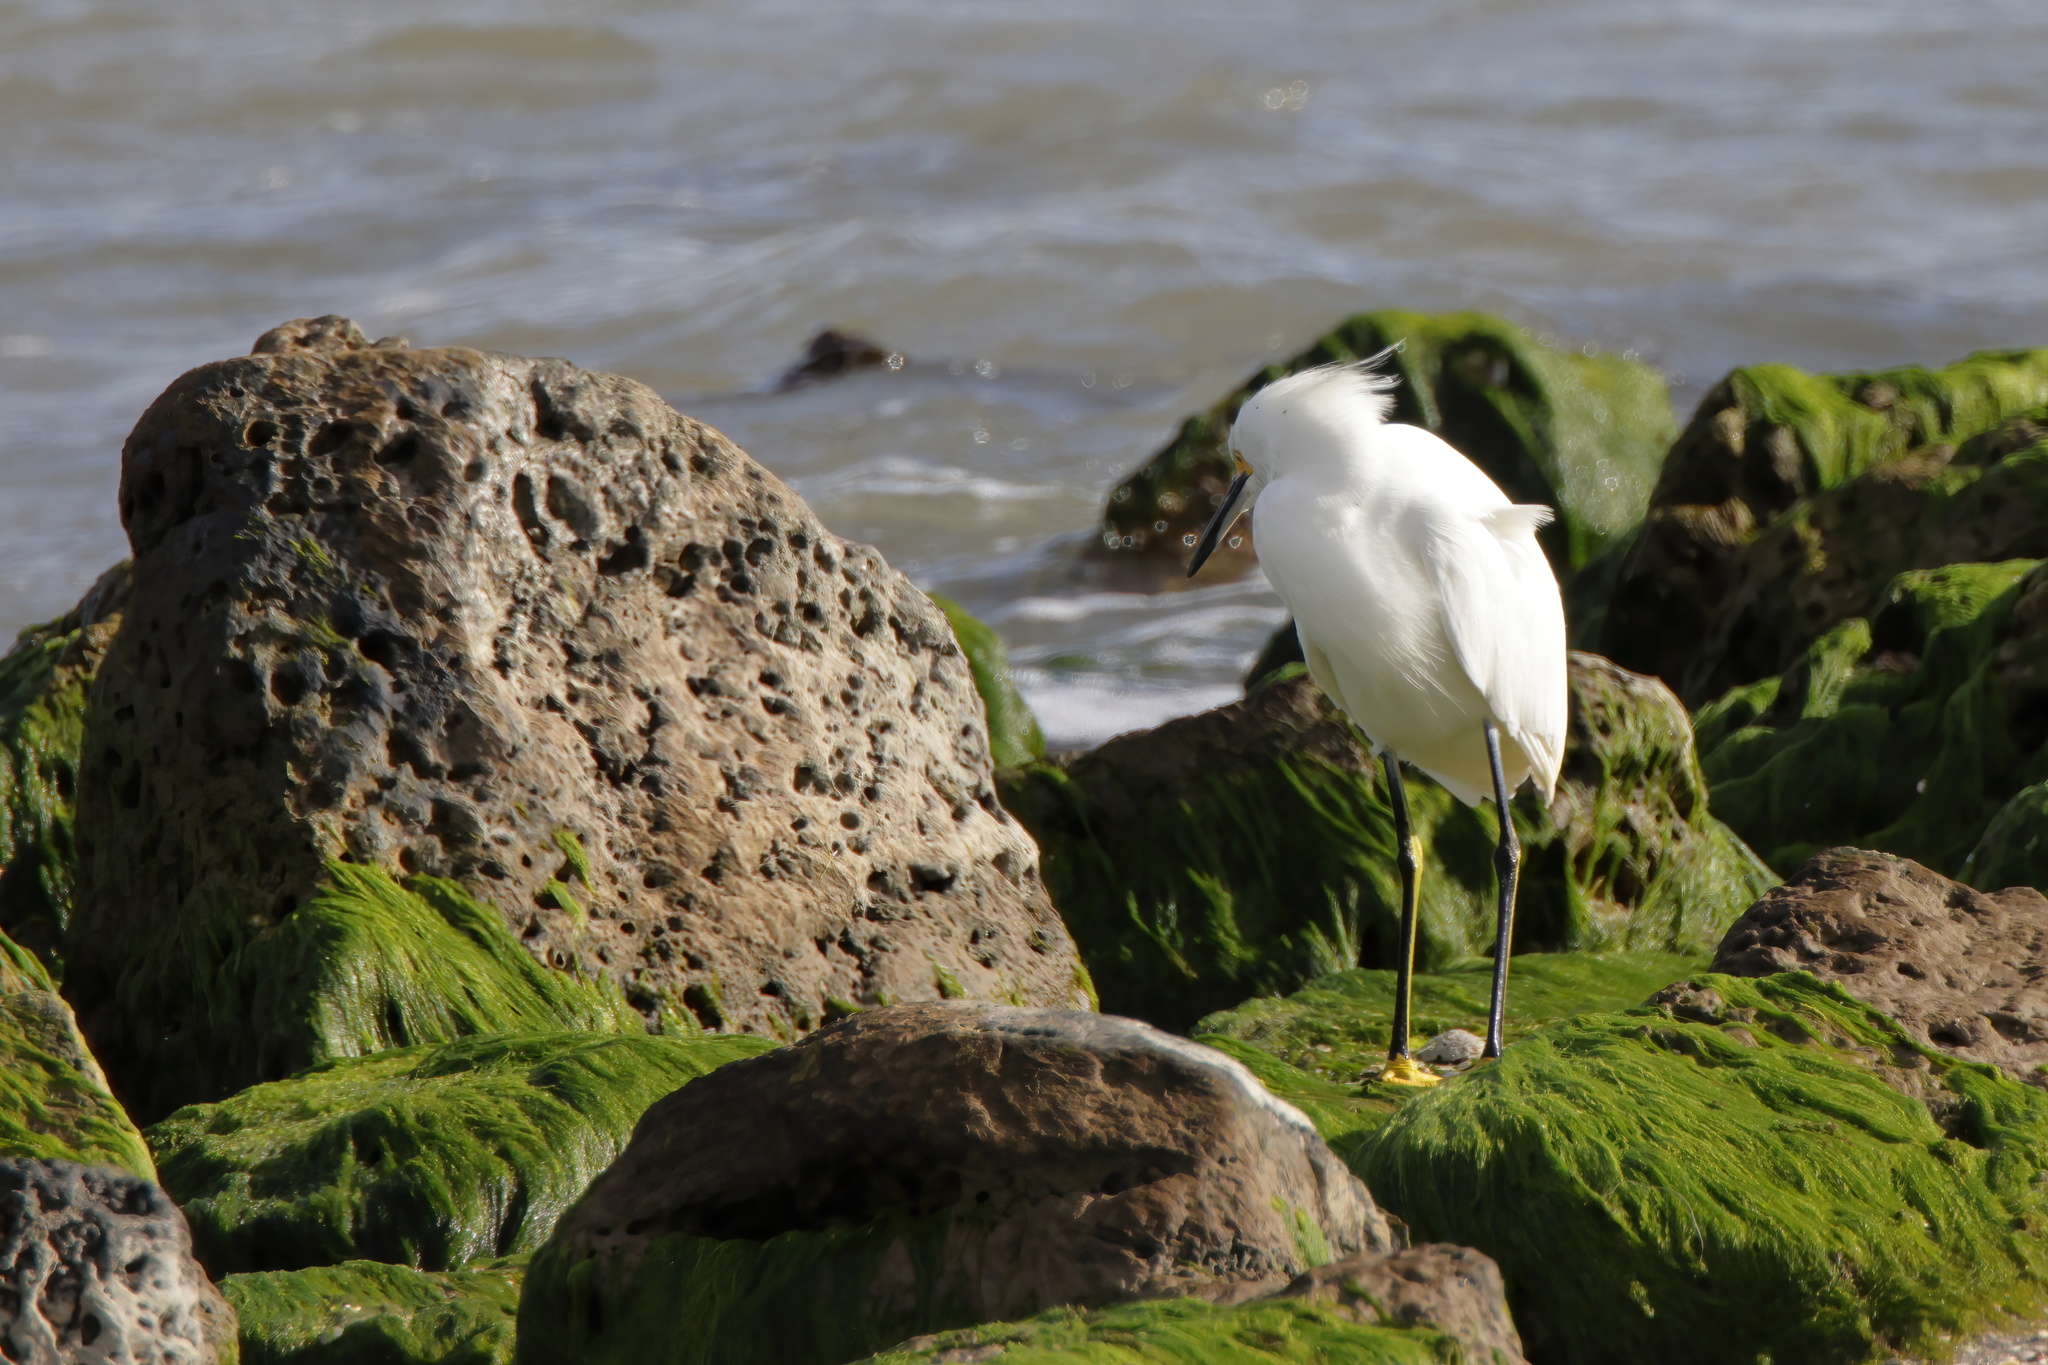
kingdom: Animalia
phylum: Chordata
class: Aves
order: Pelecaniformes
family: Ardeidae
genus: Egretta
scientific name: Egretta thula
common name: Snowy egret
